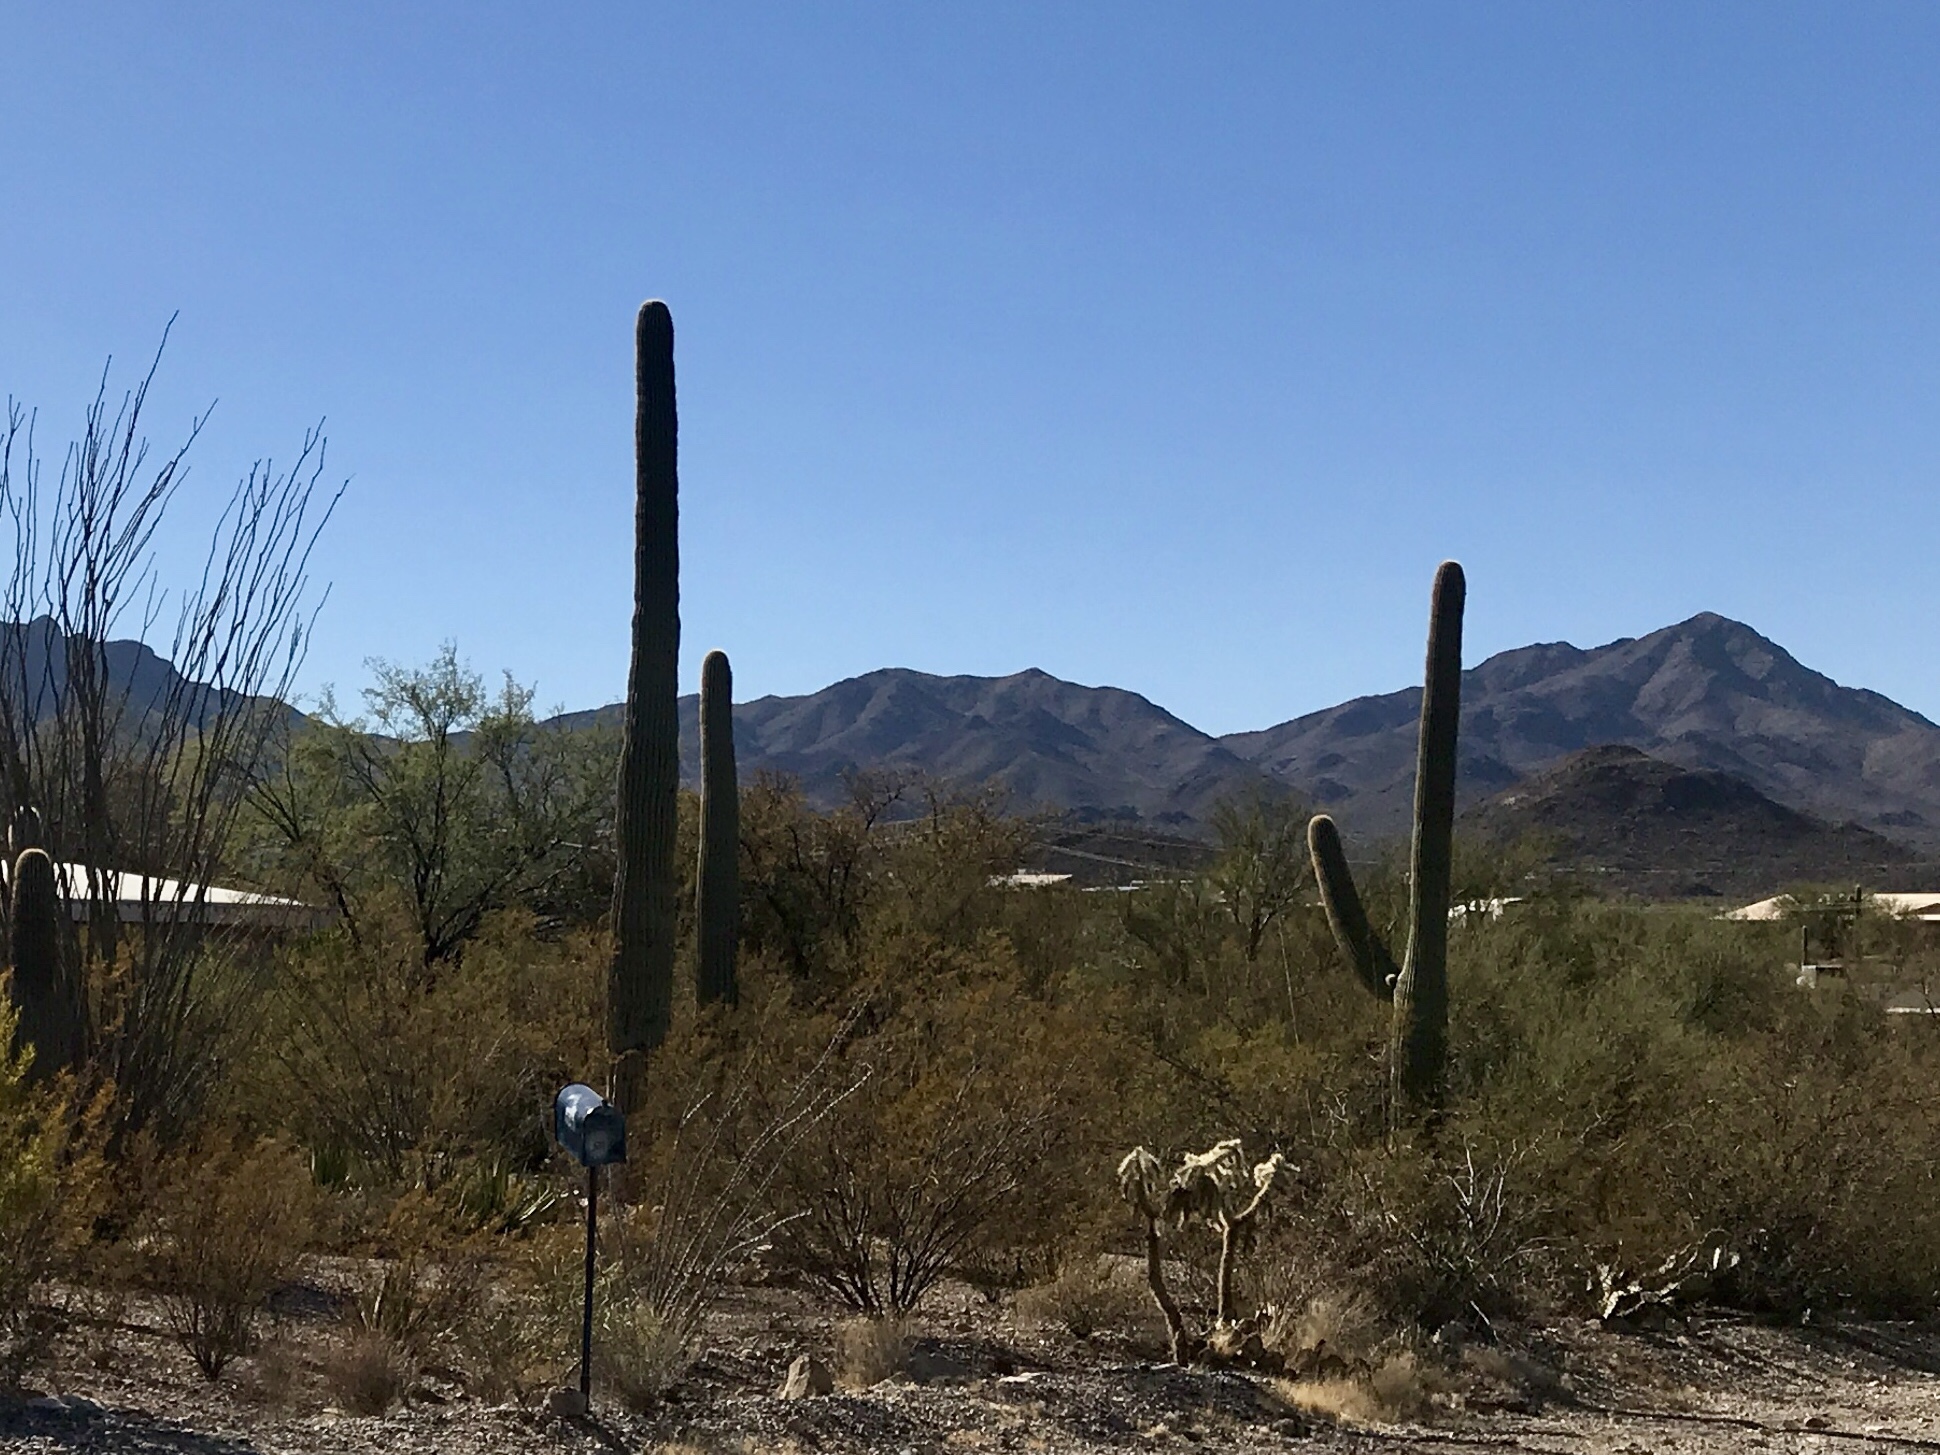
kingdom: Plantae
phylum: Tracheophyta
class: Magnoliopsida
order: Caryophyllales
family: Cactaceae
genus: Carnegiea
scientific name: Carnegiea gigantea
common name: Saguaro
